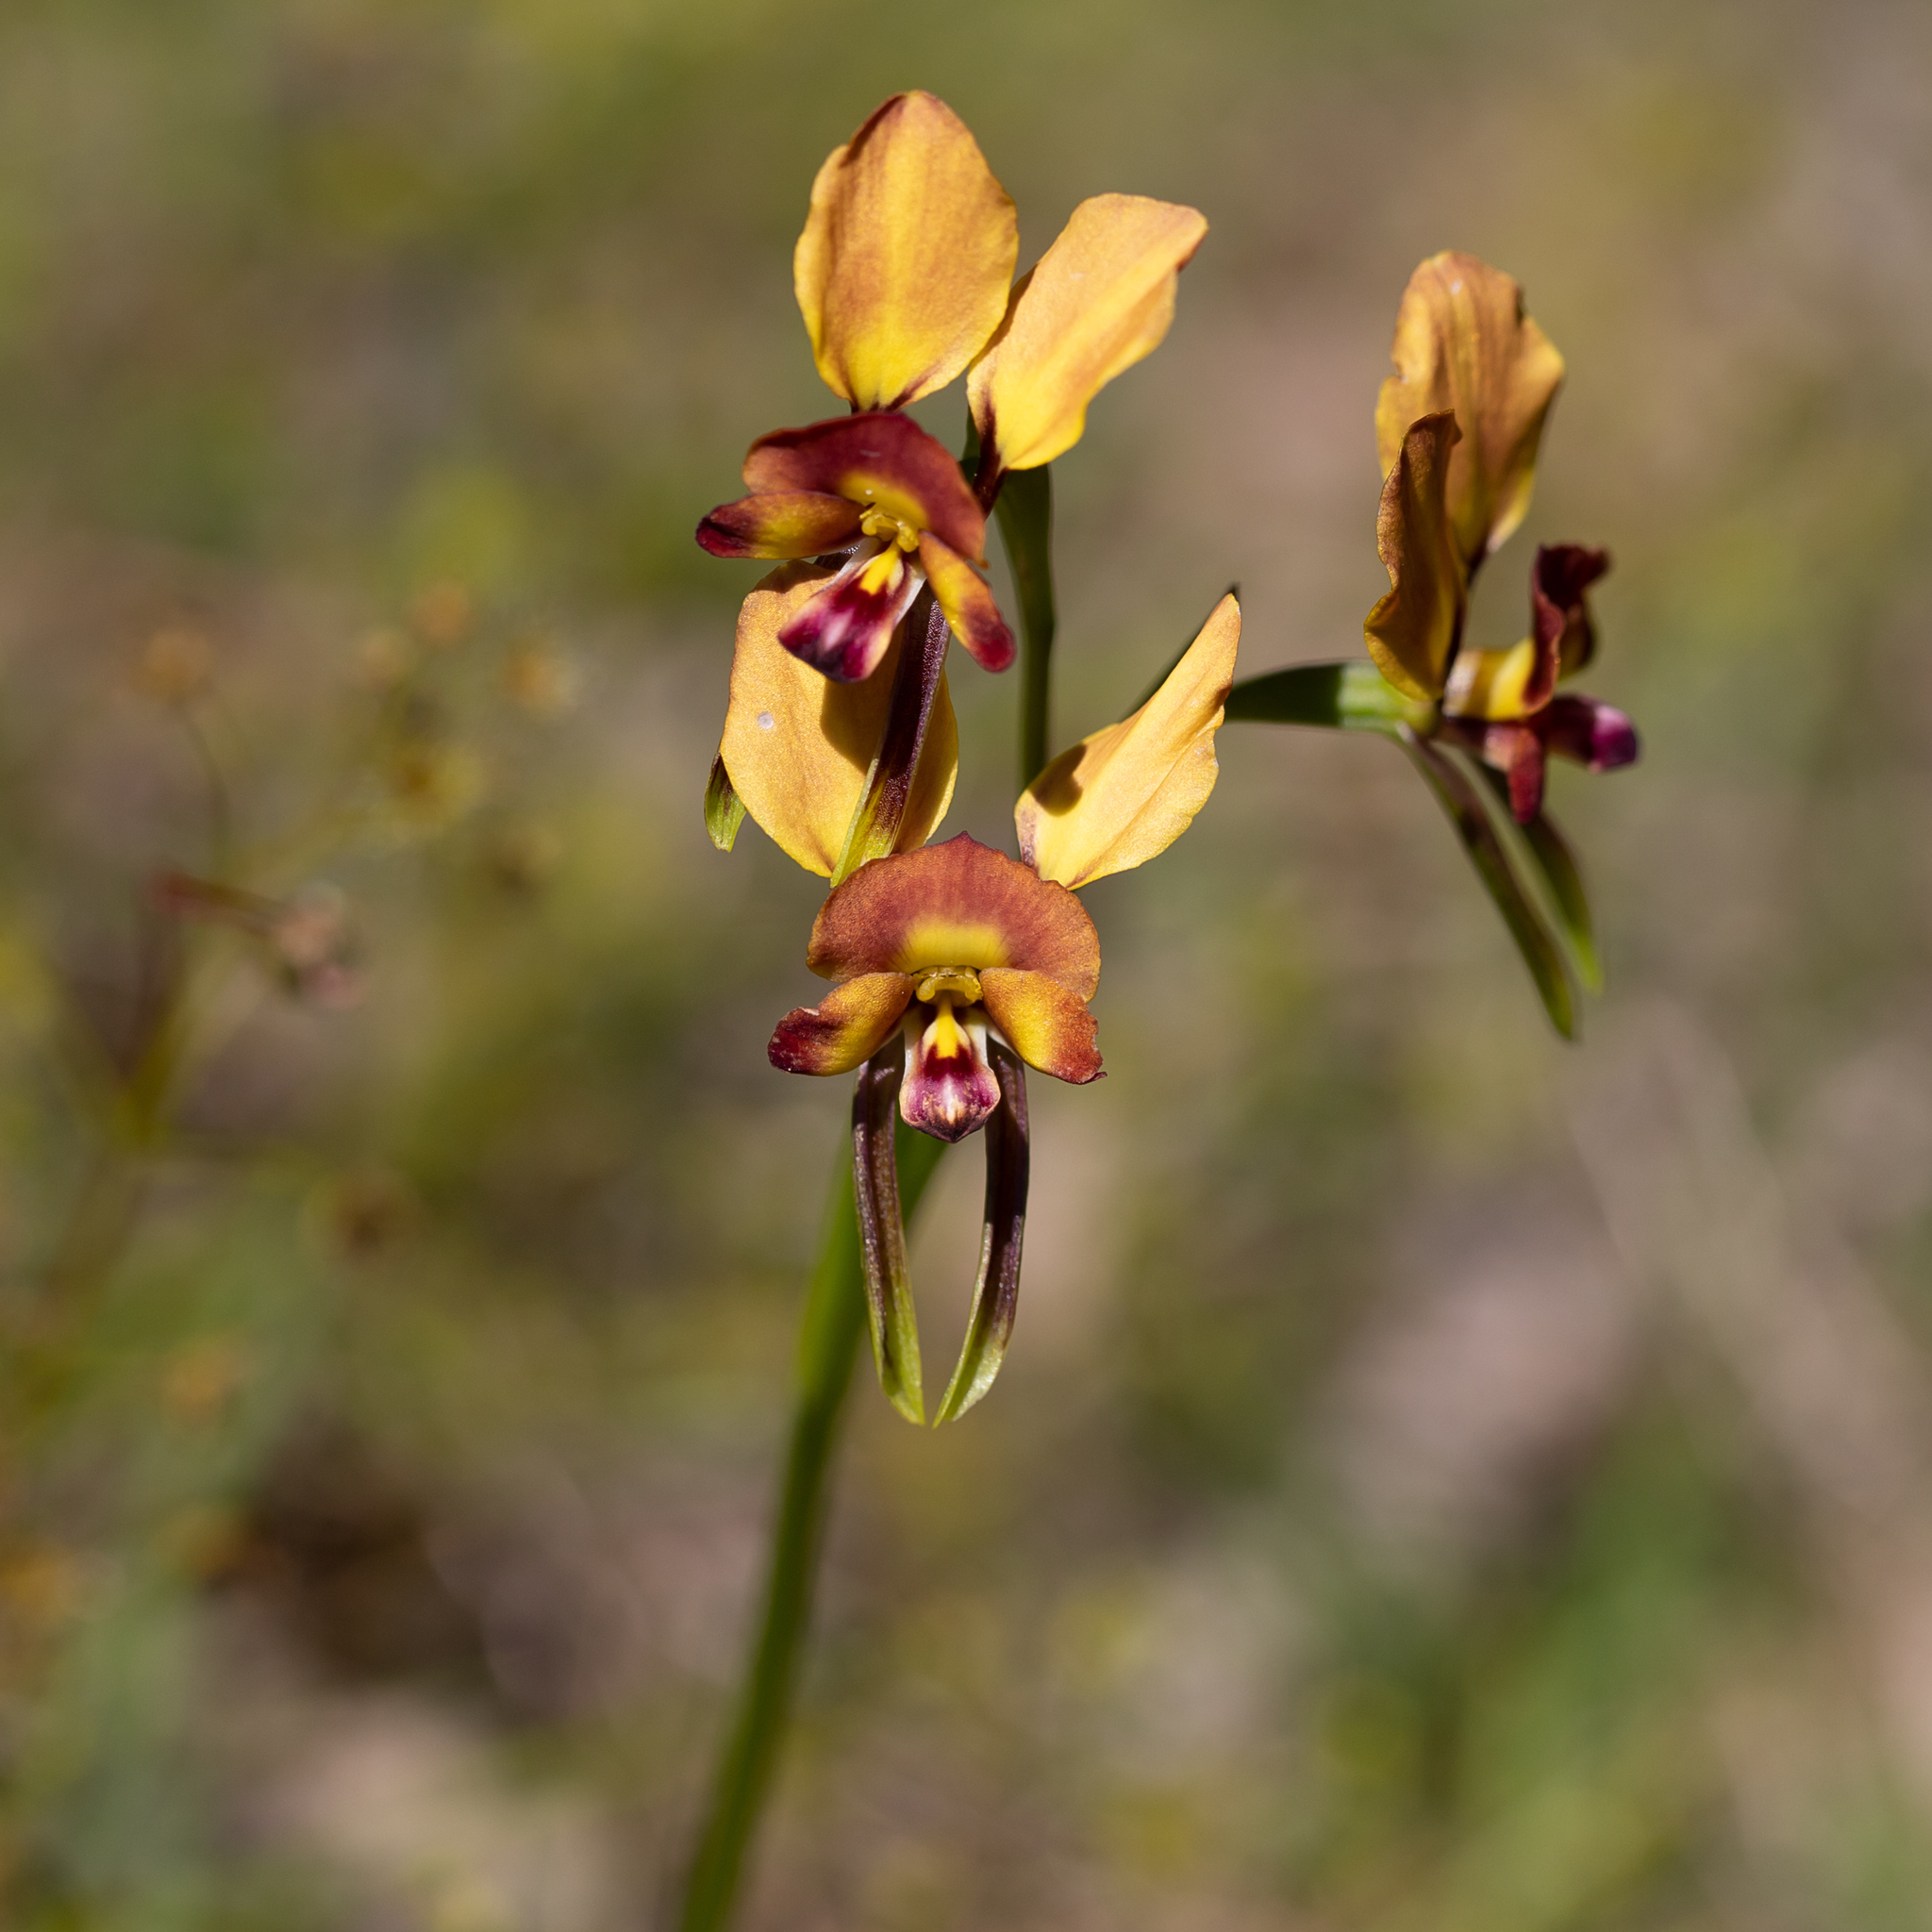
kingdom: Plantae
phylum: Tracheophyta
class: Liliopsida
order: Asparagales
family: Orchidaceae
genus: Diuris
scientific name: Diuris orientis
